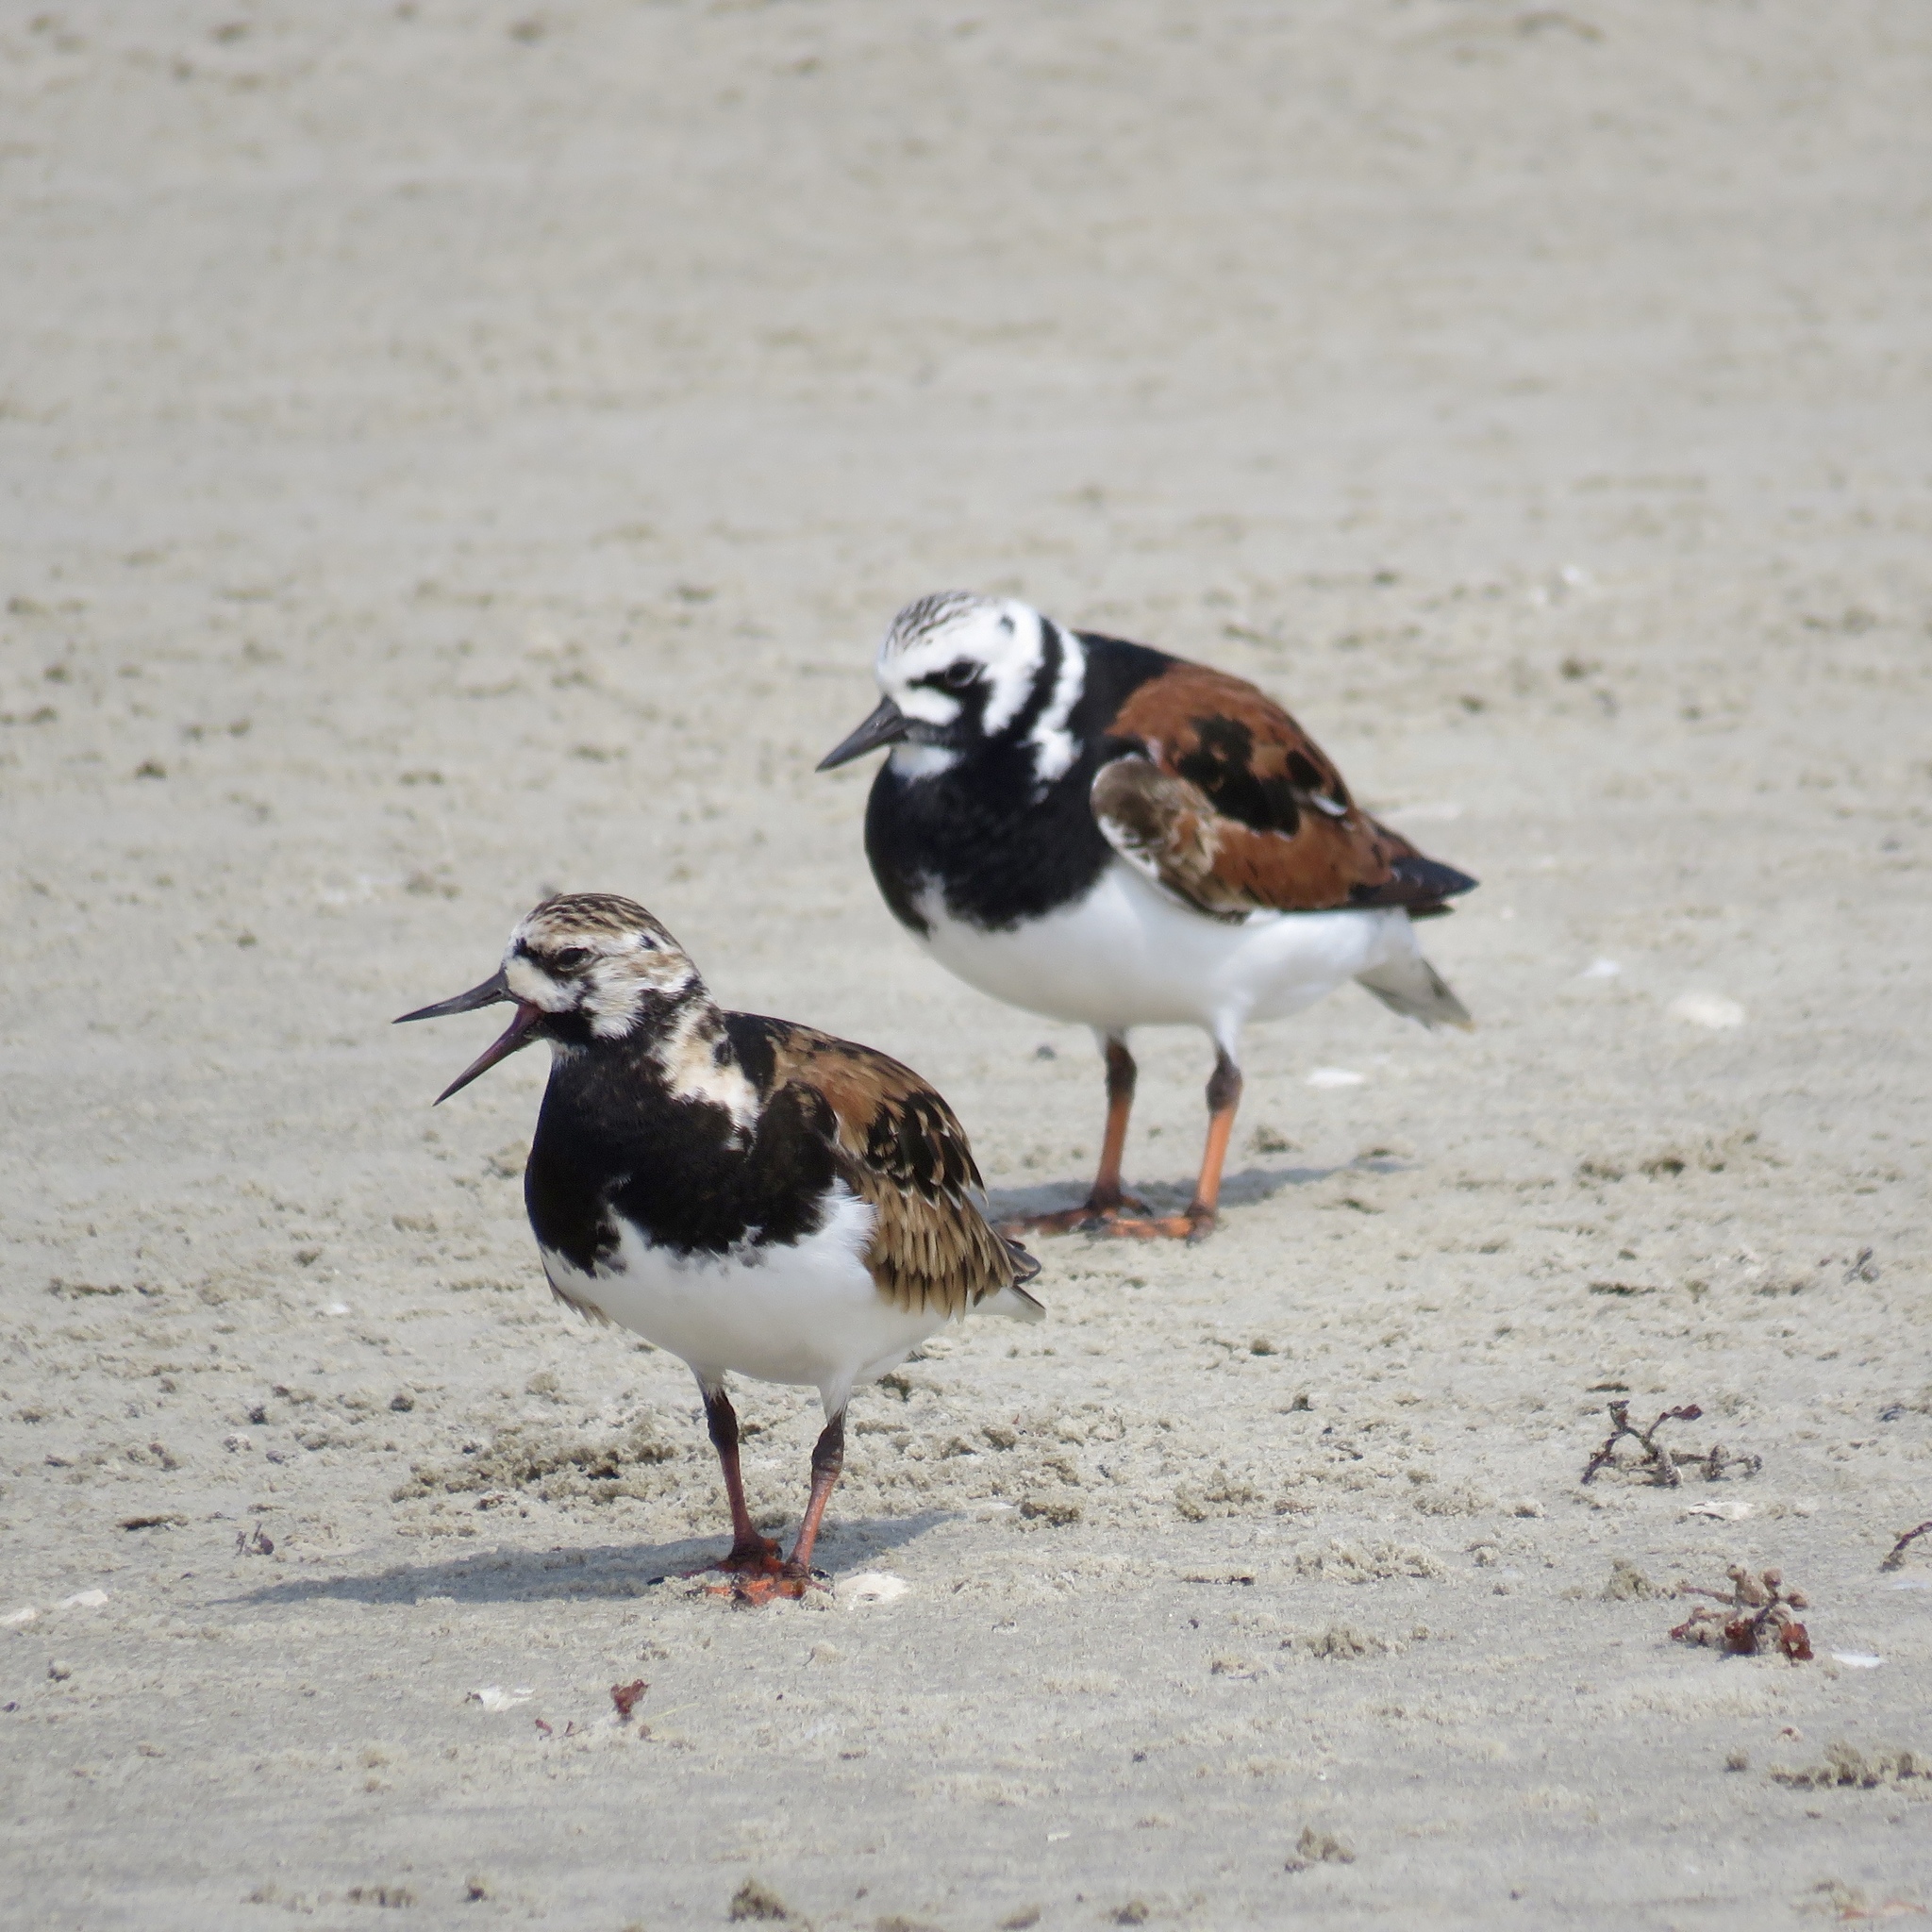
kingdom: Animalia
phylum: Chordata
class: Aves
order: Charadriiformes
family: Scolopacidae
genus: Arenaria
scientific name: Arenaria interpres
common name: Ruddy turnstone
